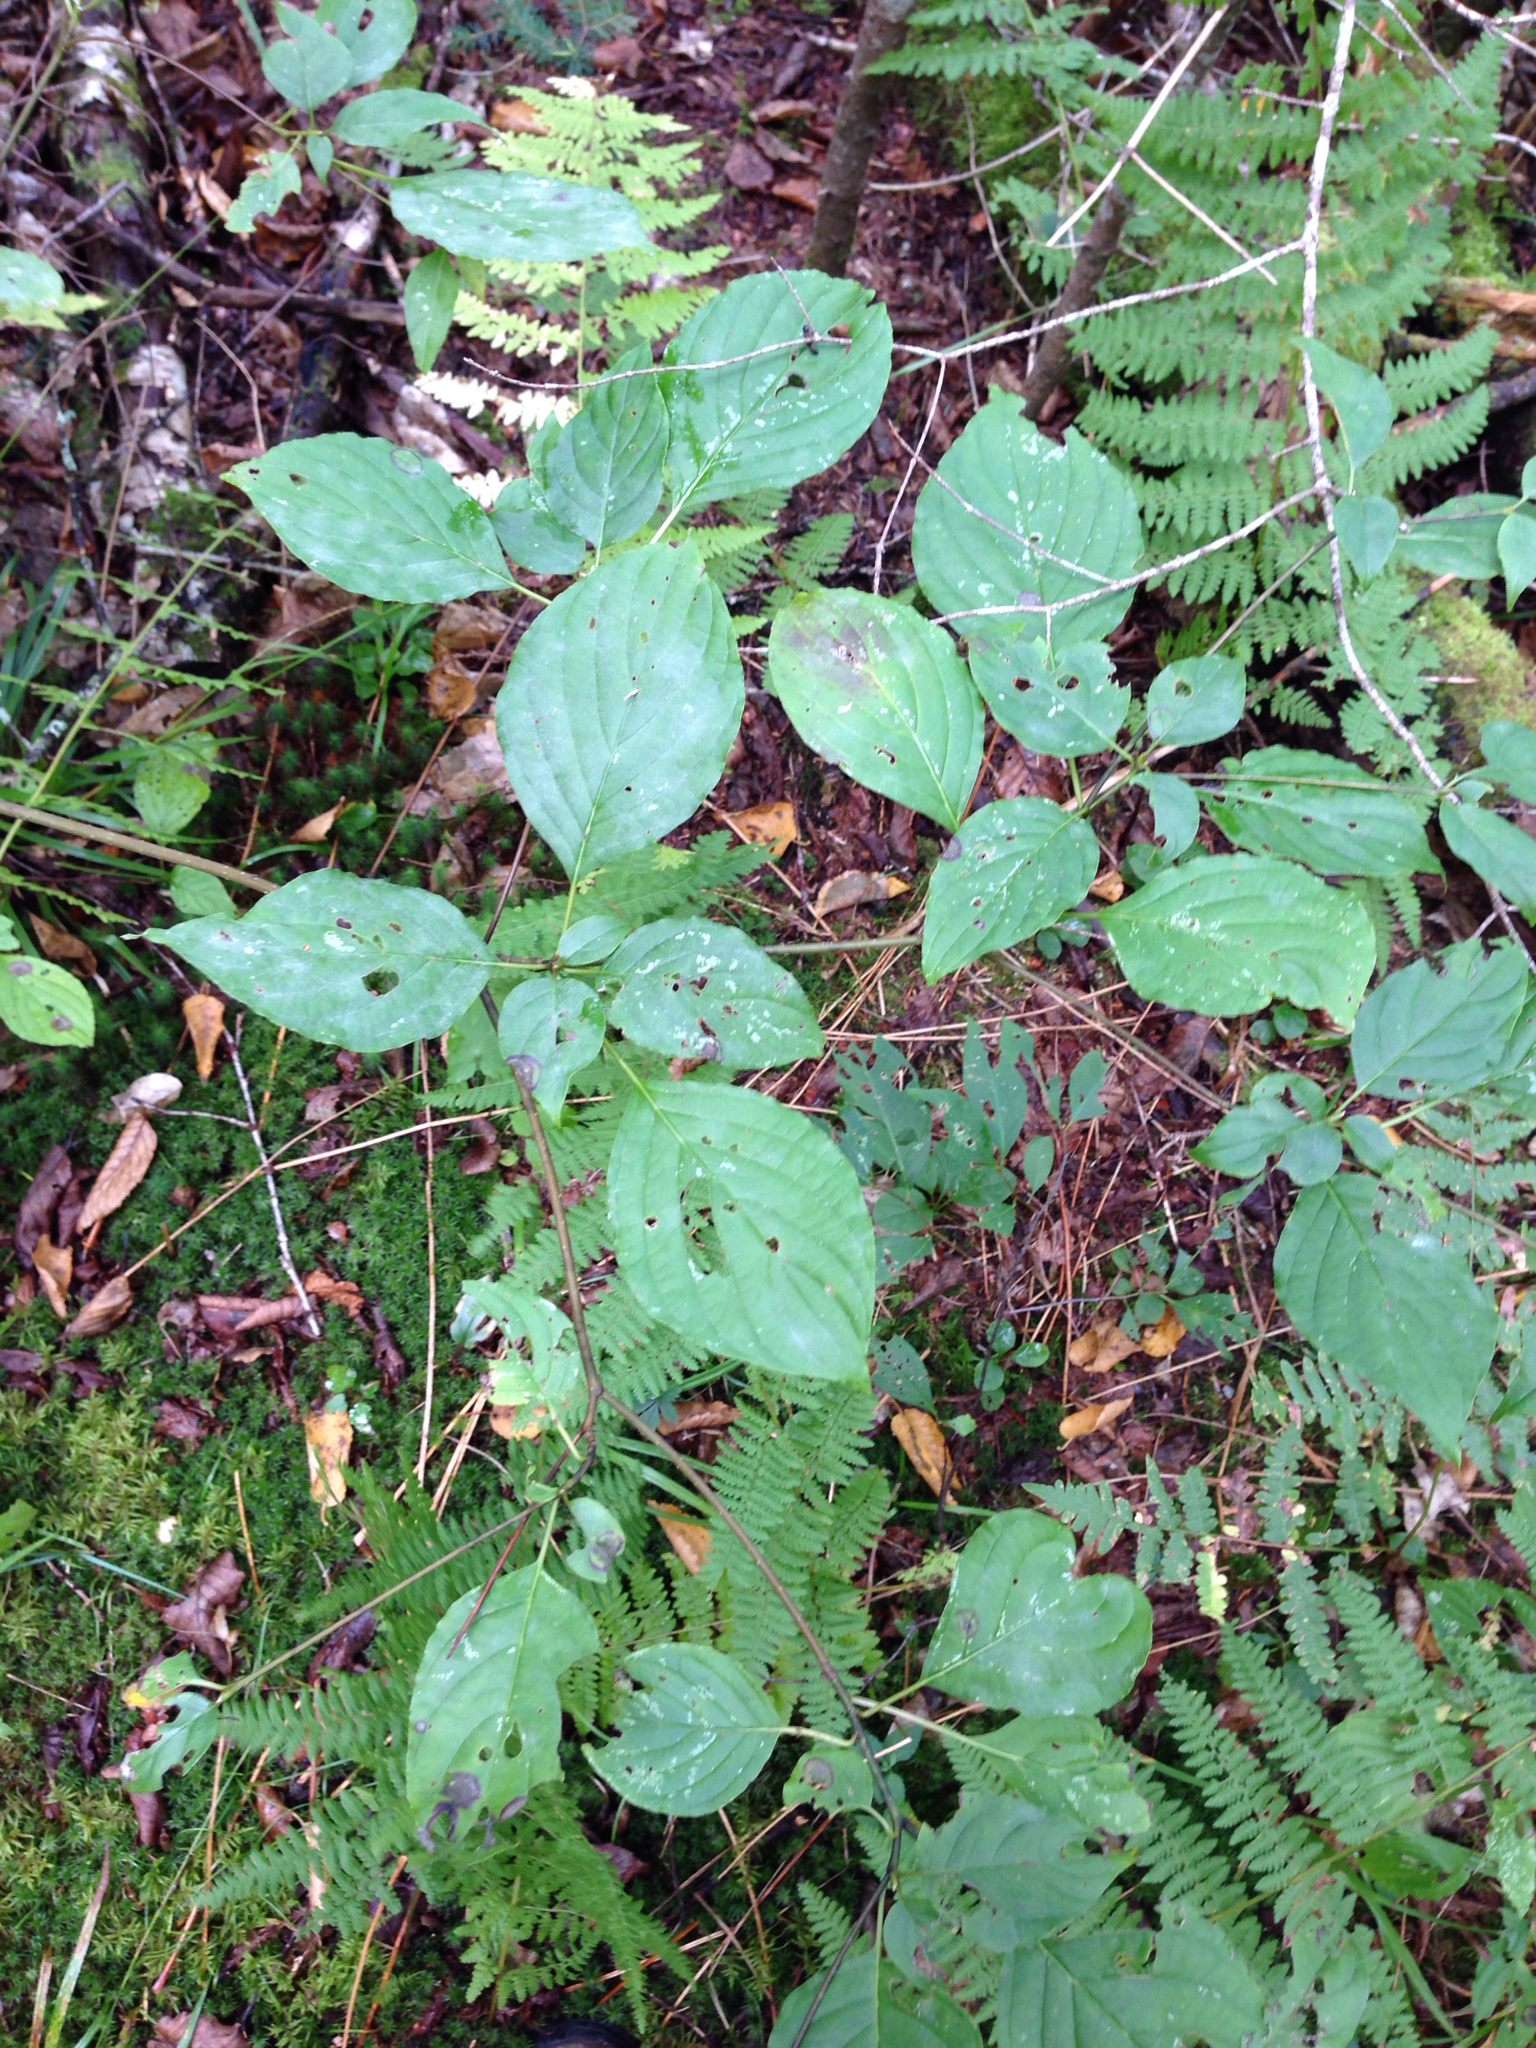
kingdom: Plantae
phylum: Tracheophyta
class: Magnoliopsida
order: Cornales
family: Cornaceae
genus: Cornus
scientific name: Cornus alternifolia
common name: Pagoda dogwood
